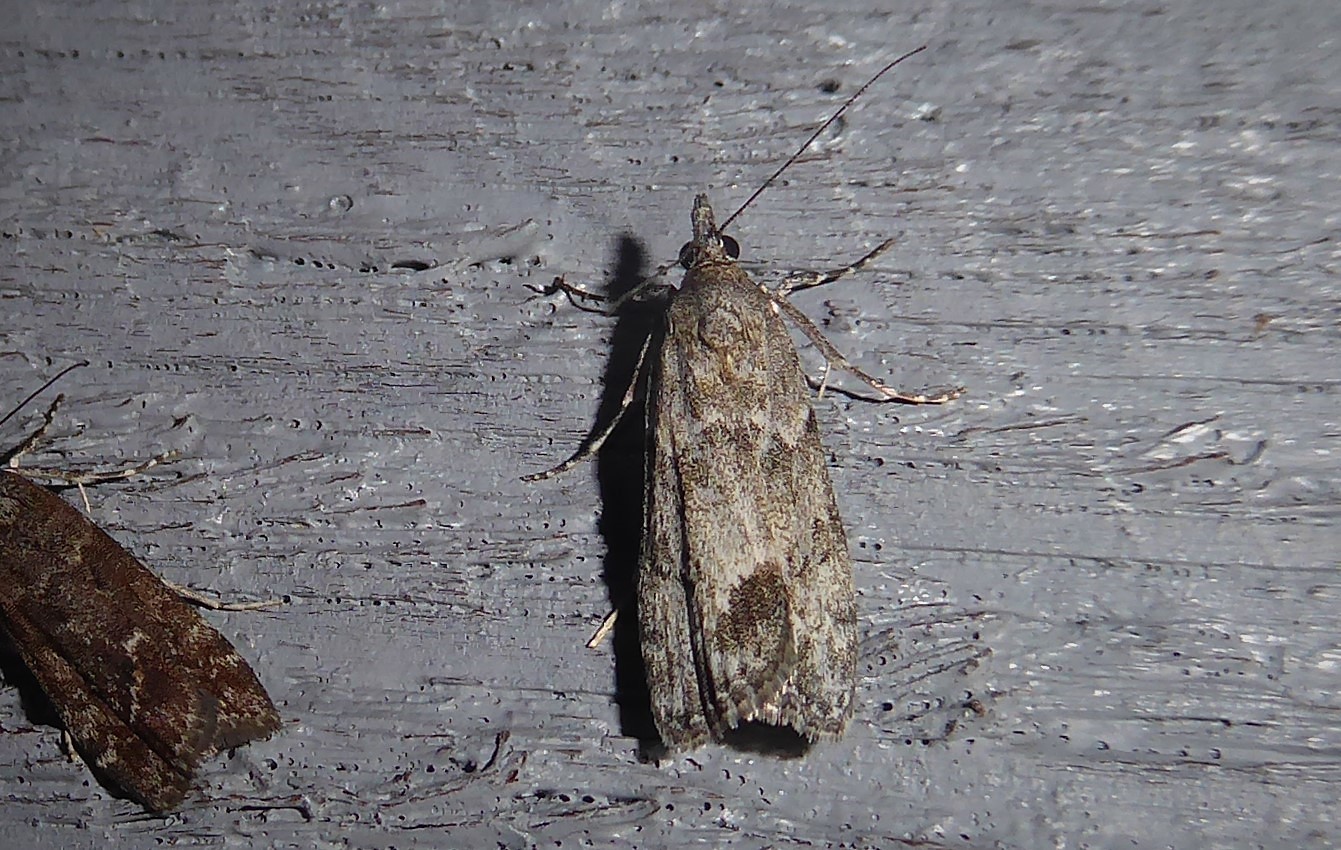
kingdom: Animalia
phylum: Arthropoda
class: Insecta
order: Lepidoptera
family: Crambidae
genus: Eudonia
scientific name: Eudonia rakaiensis
